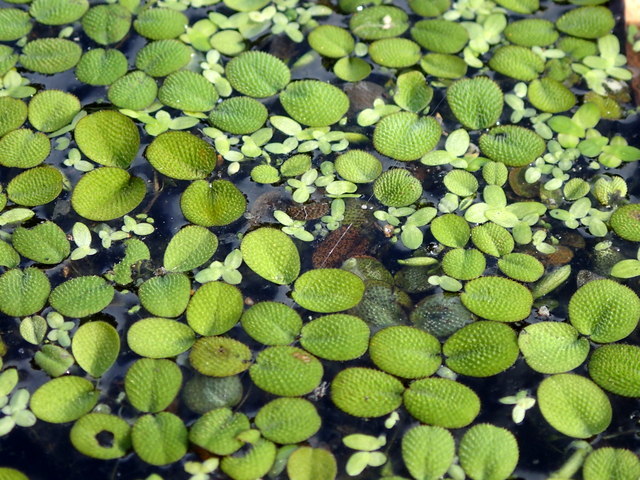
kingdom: Plantae
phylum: Tracheophyta
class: Polypodiopsida
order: Salviniales
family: Salviniaceae
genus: Salvinia
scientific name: Salvinia minima
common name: Water spangles
